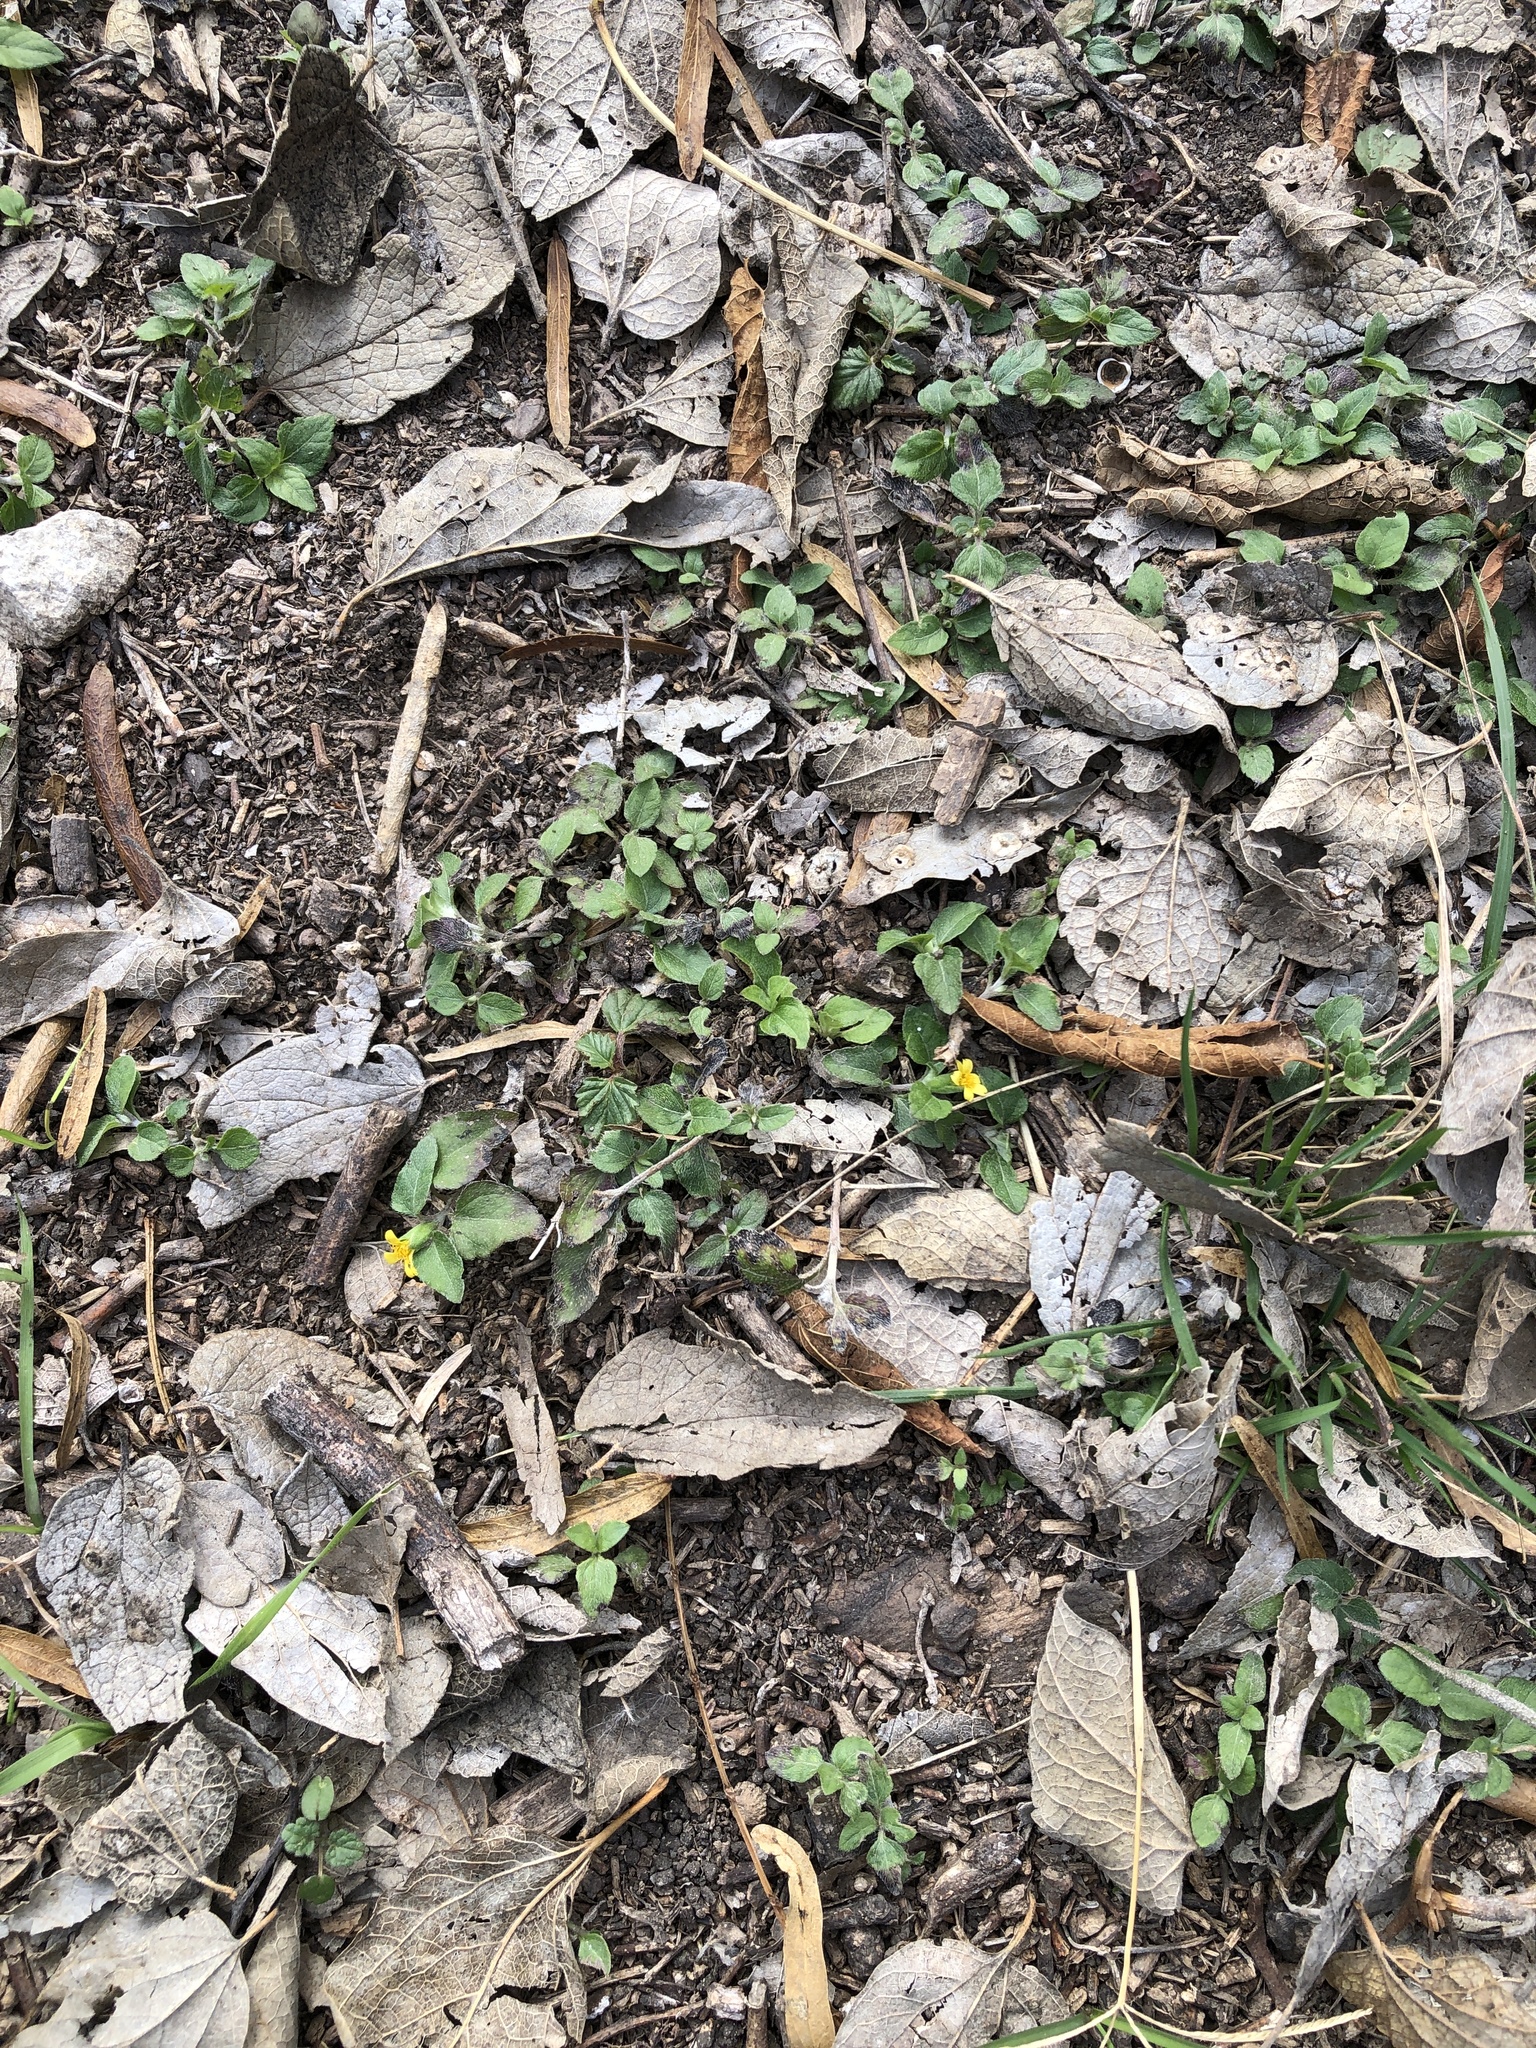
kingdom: Plantae
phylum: Tracheophyta
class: Magnoliopsida
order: Asterales
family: Asteraceae
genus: Calyptocarpus
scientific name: Calyptocarpus vialis
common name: Straggler daisy
